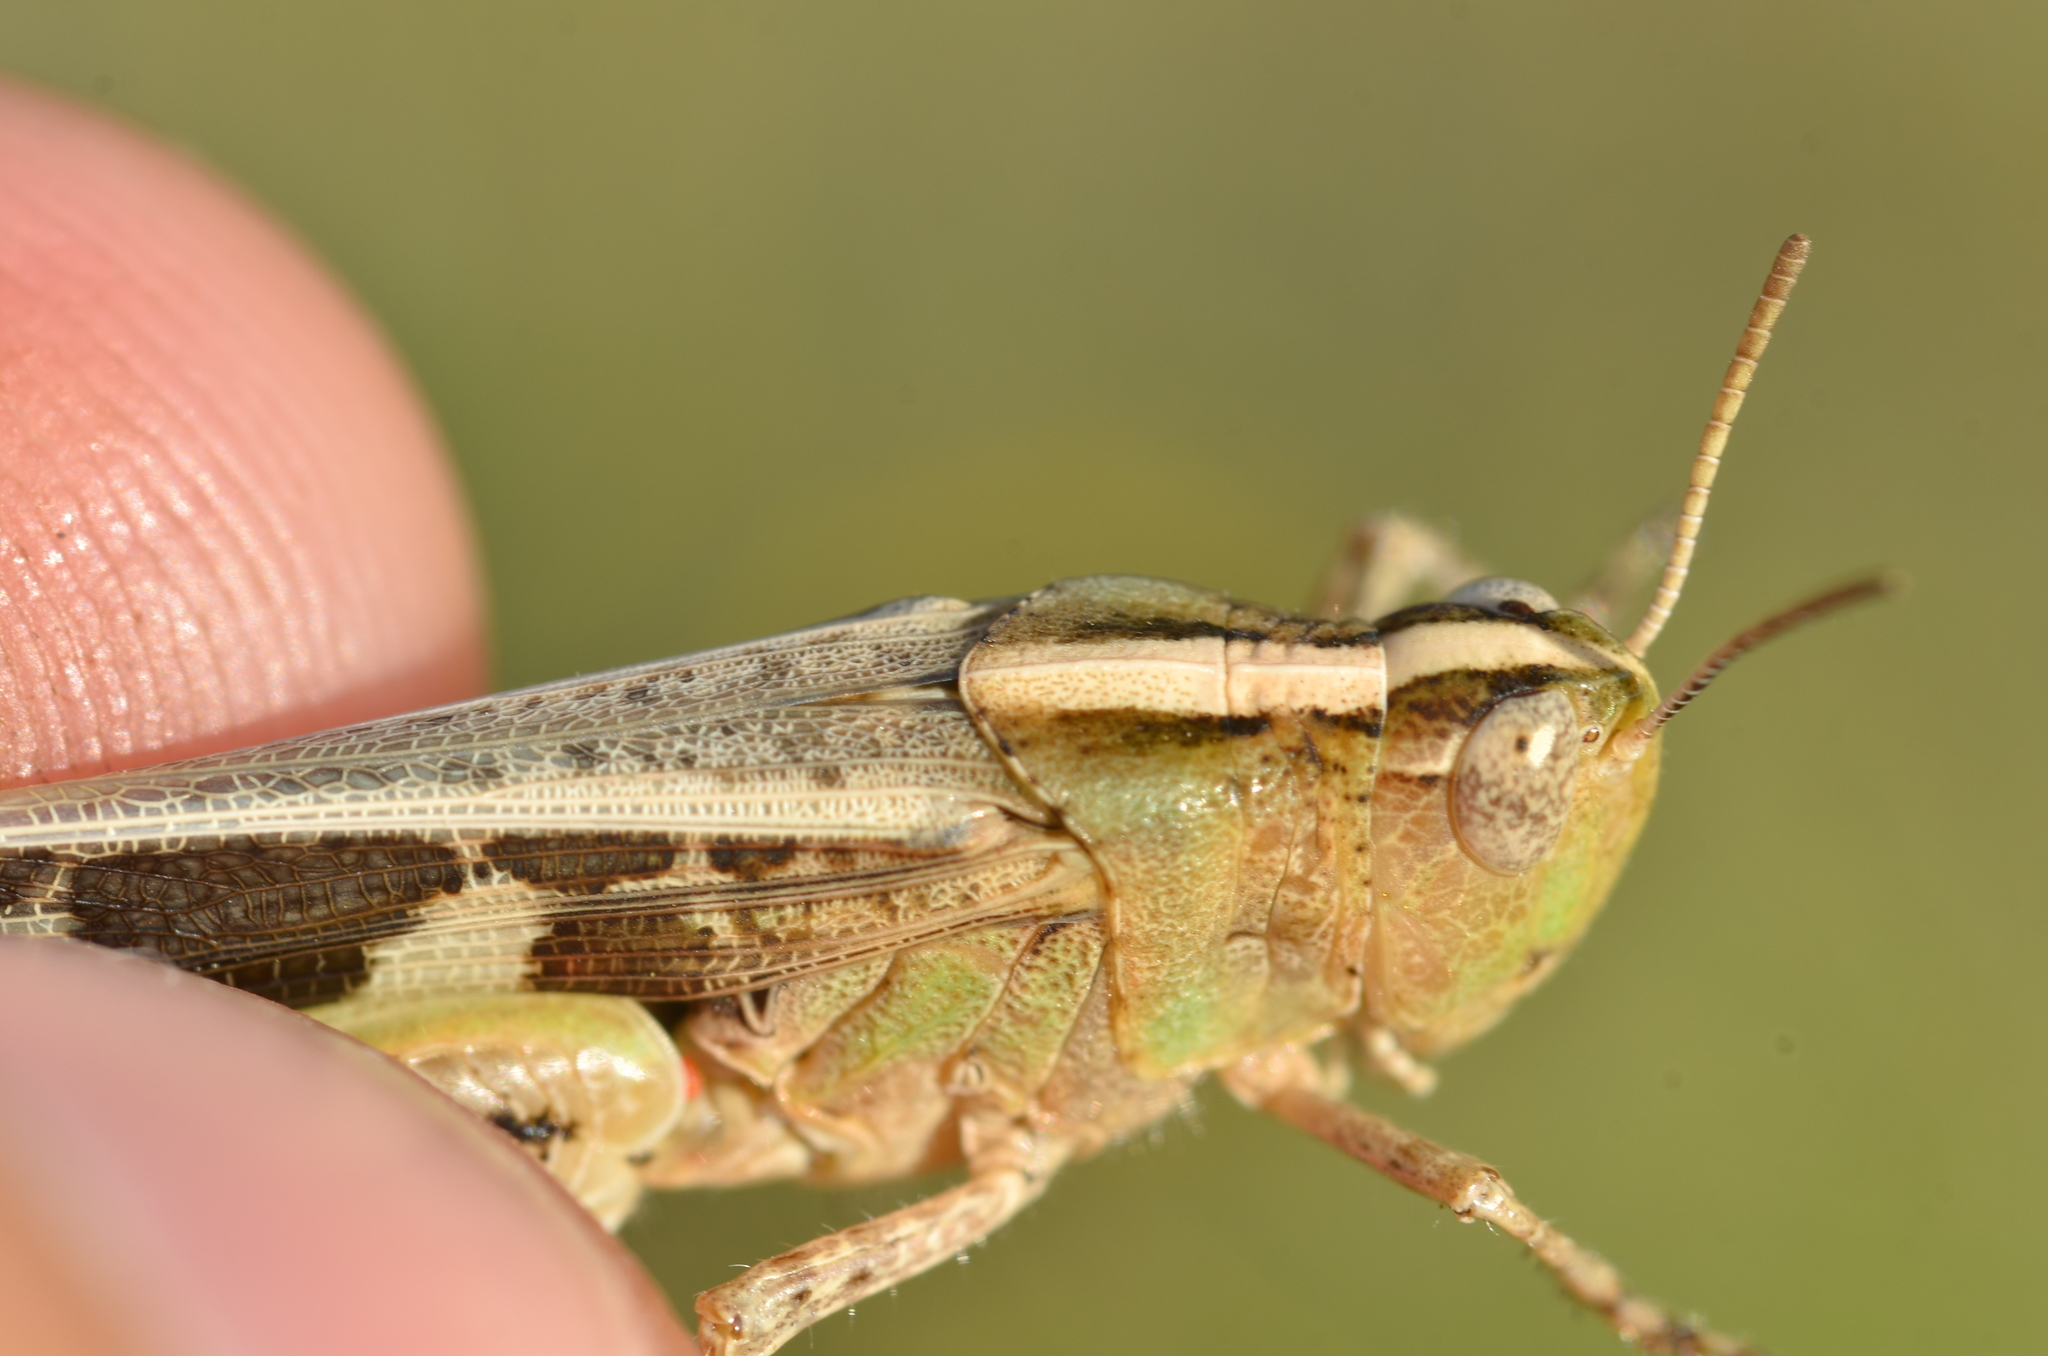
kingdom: Animalia
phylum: Arthropoda
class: Insecta
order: Orthoptera
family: Acrididae
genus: Aiolopus
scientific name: Aiolopus strepens
